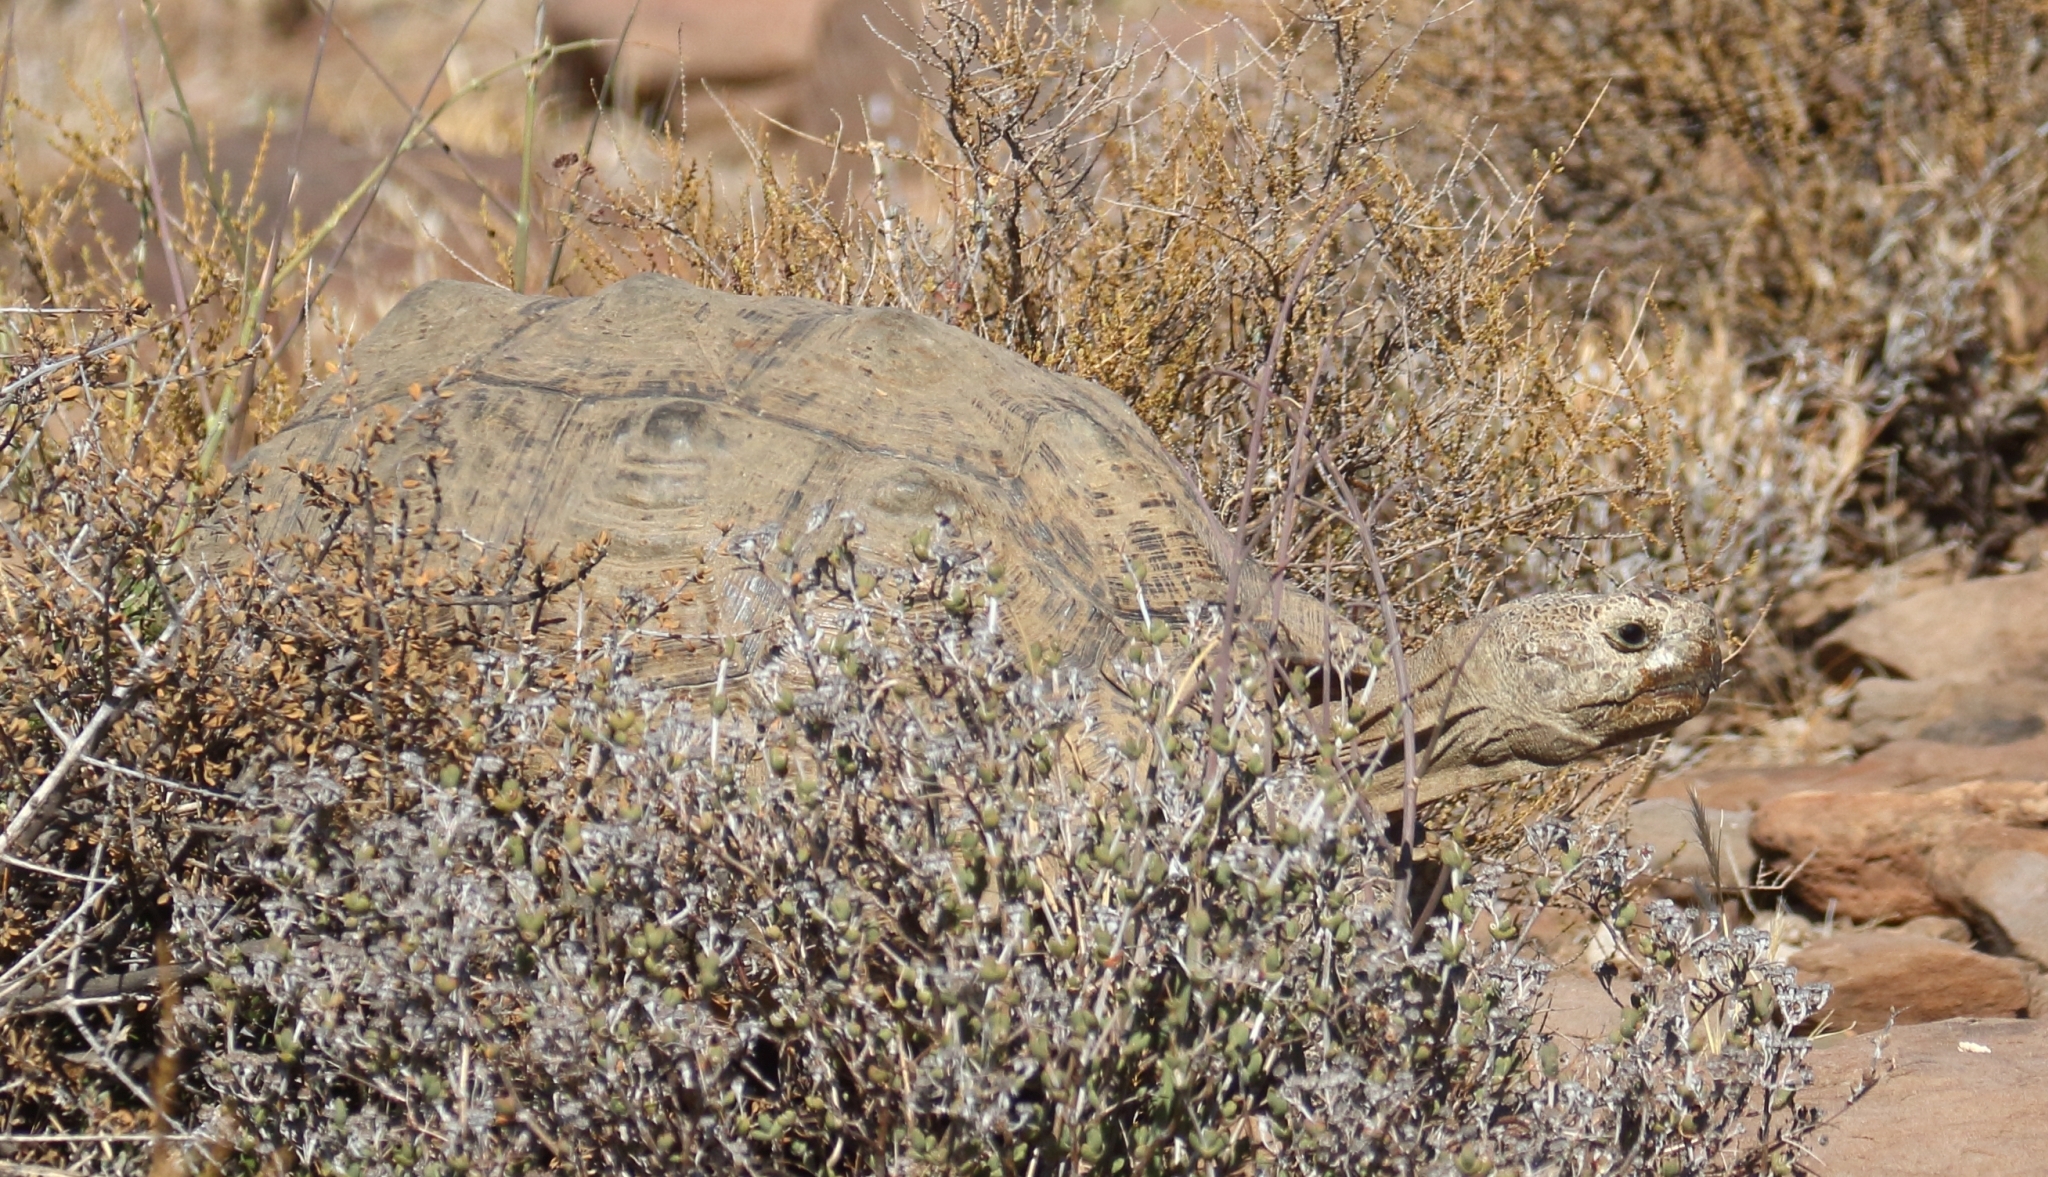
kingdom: Animalia
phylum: Chordata
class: Testudines
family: Testudinidae
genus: Stigmochelys
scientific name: Stigmochelys pardalis
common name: Leopard tortoise
